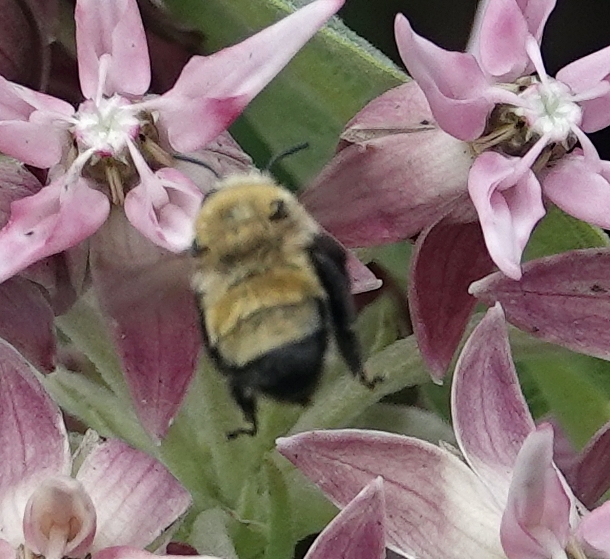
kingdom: Animalia
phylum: Arthropoda
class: Insecta
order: Hymenoptera
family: Apidae
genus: Anthophora
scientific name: Anthophora bomboides
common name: Bumble-bee-mimic digger bee
